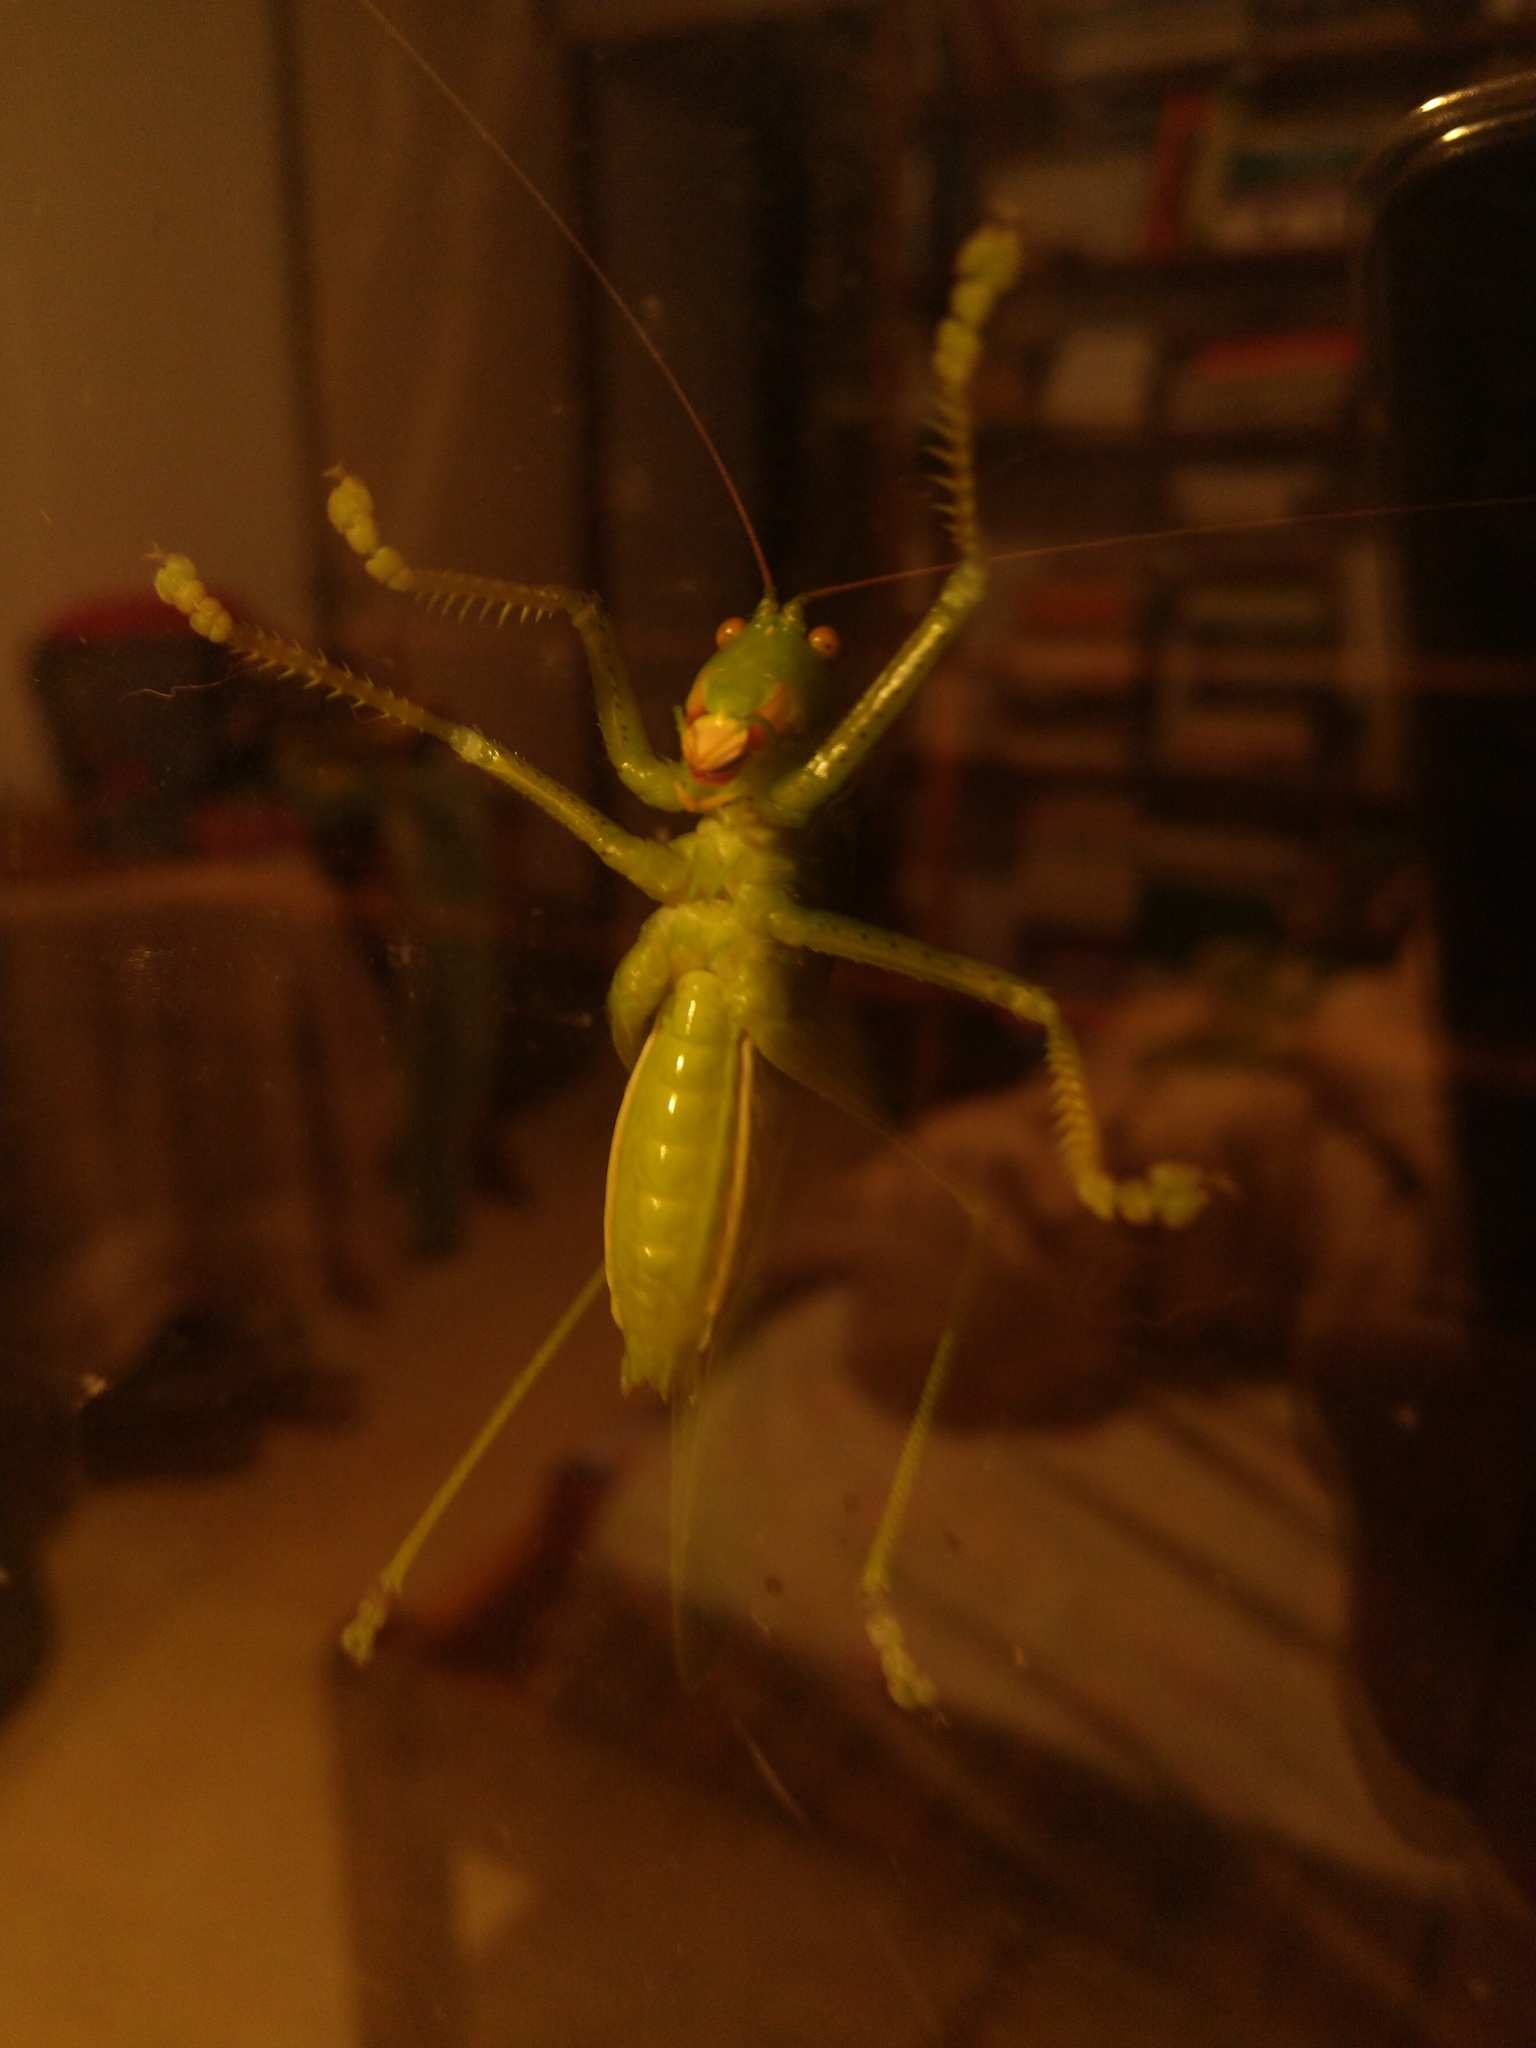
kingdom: Animalia
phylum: Arthropoda
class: Insecta
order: Orthoptera
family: Tettigoniidae
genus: Megatympanon
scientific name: Megatympanon speculatum
